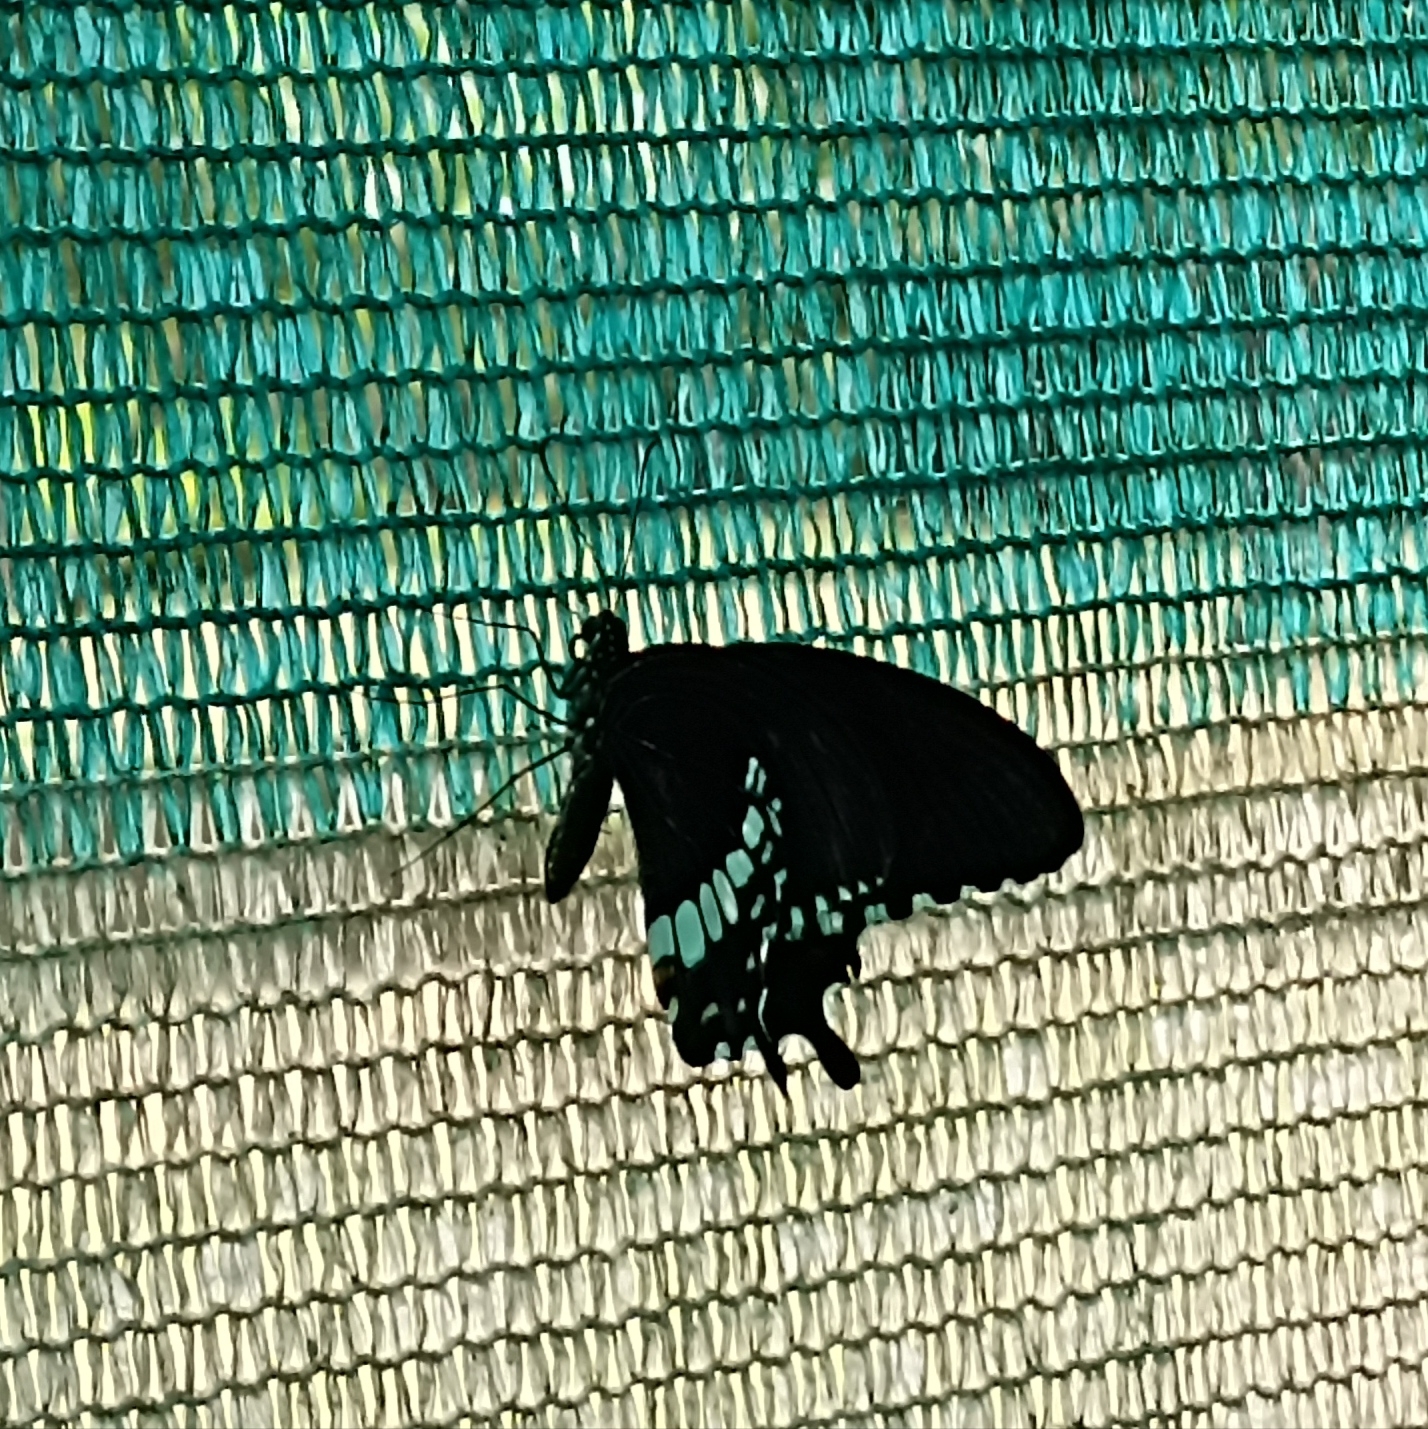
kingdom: Animalia
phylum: Arthropoda
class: Insecta
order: Lepidoptera
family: Papilionidae
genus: Papilio
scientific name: Papilio polytes
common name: Common mormon
